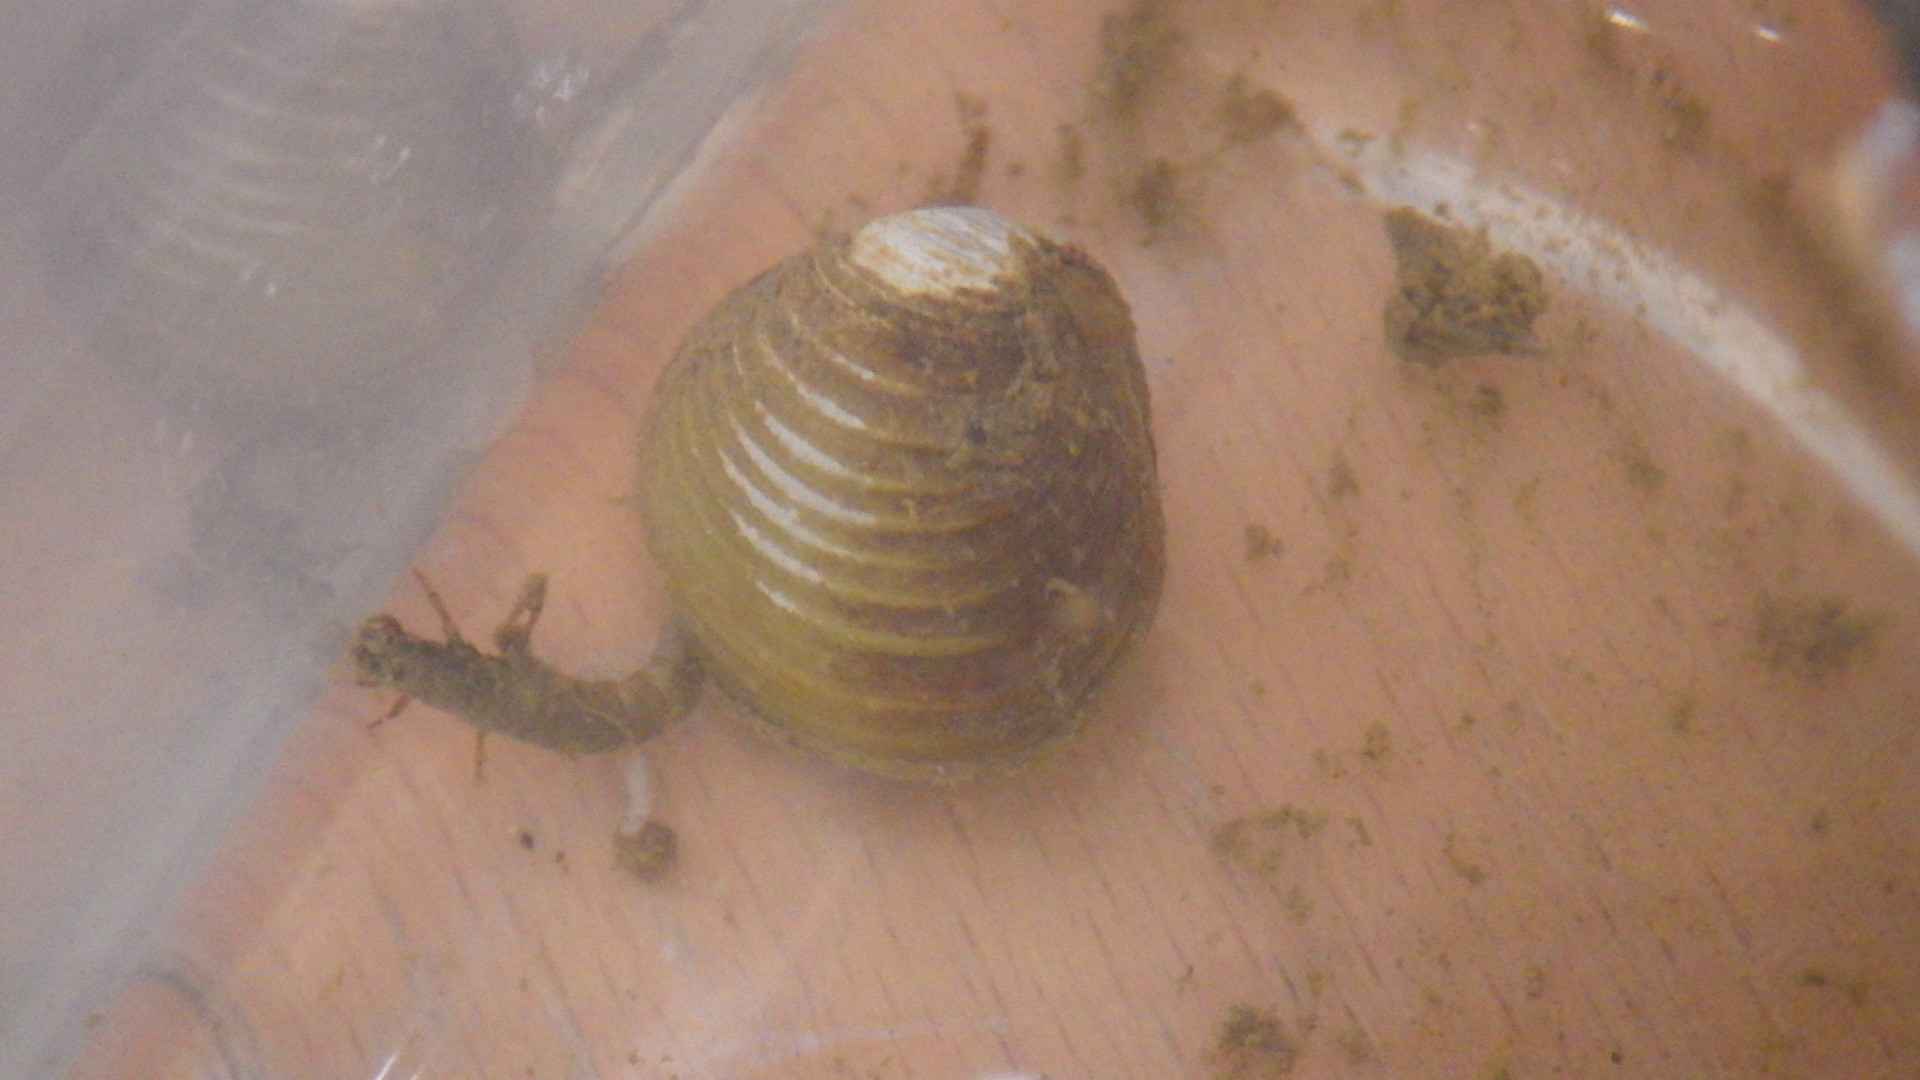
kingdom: Animalia
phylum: Mollusca
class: Bivalvia
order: Venerida
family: Cyrenidae
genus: Corbicula
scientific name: Corbicula fluminea
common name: Asian clam
